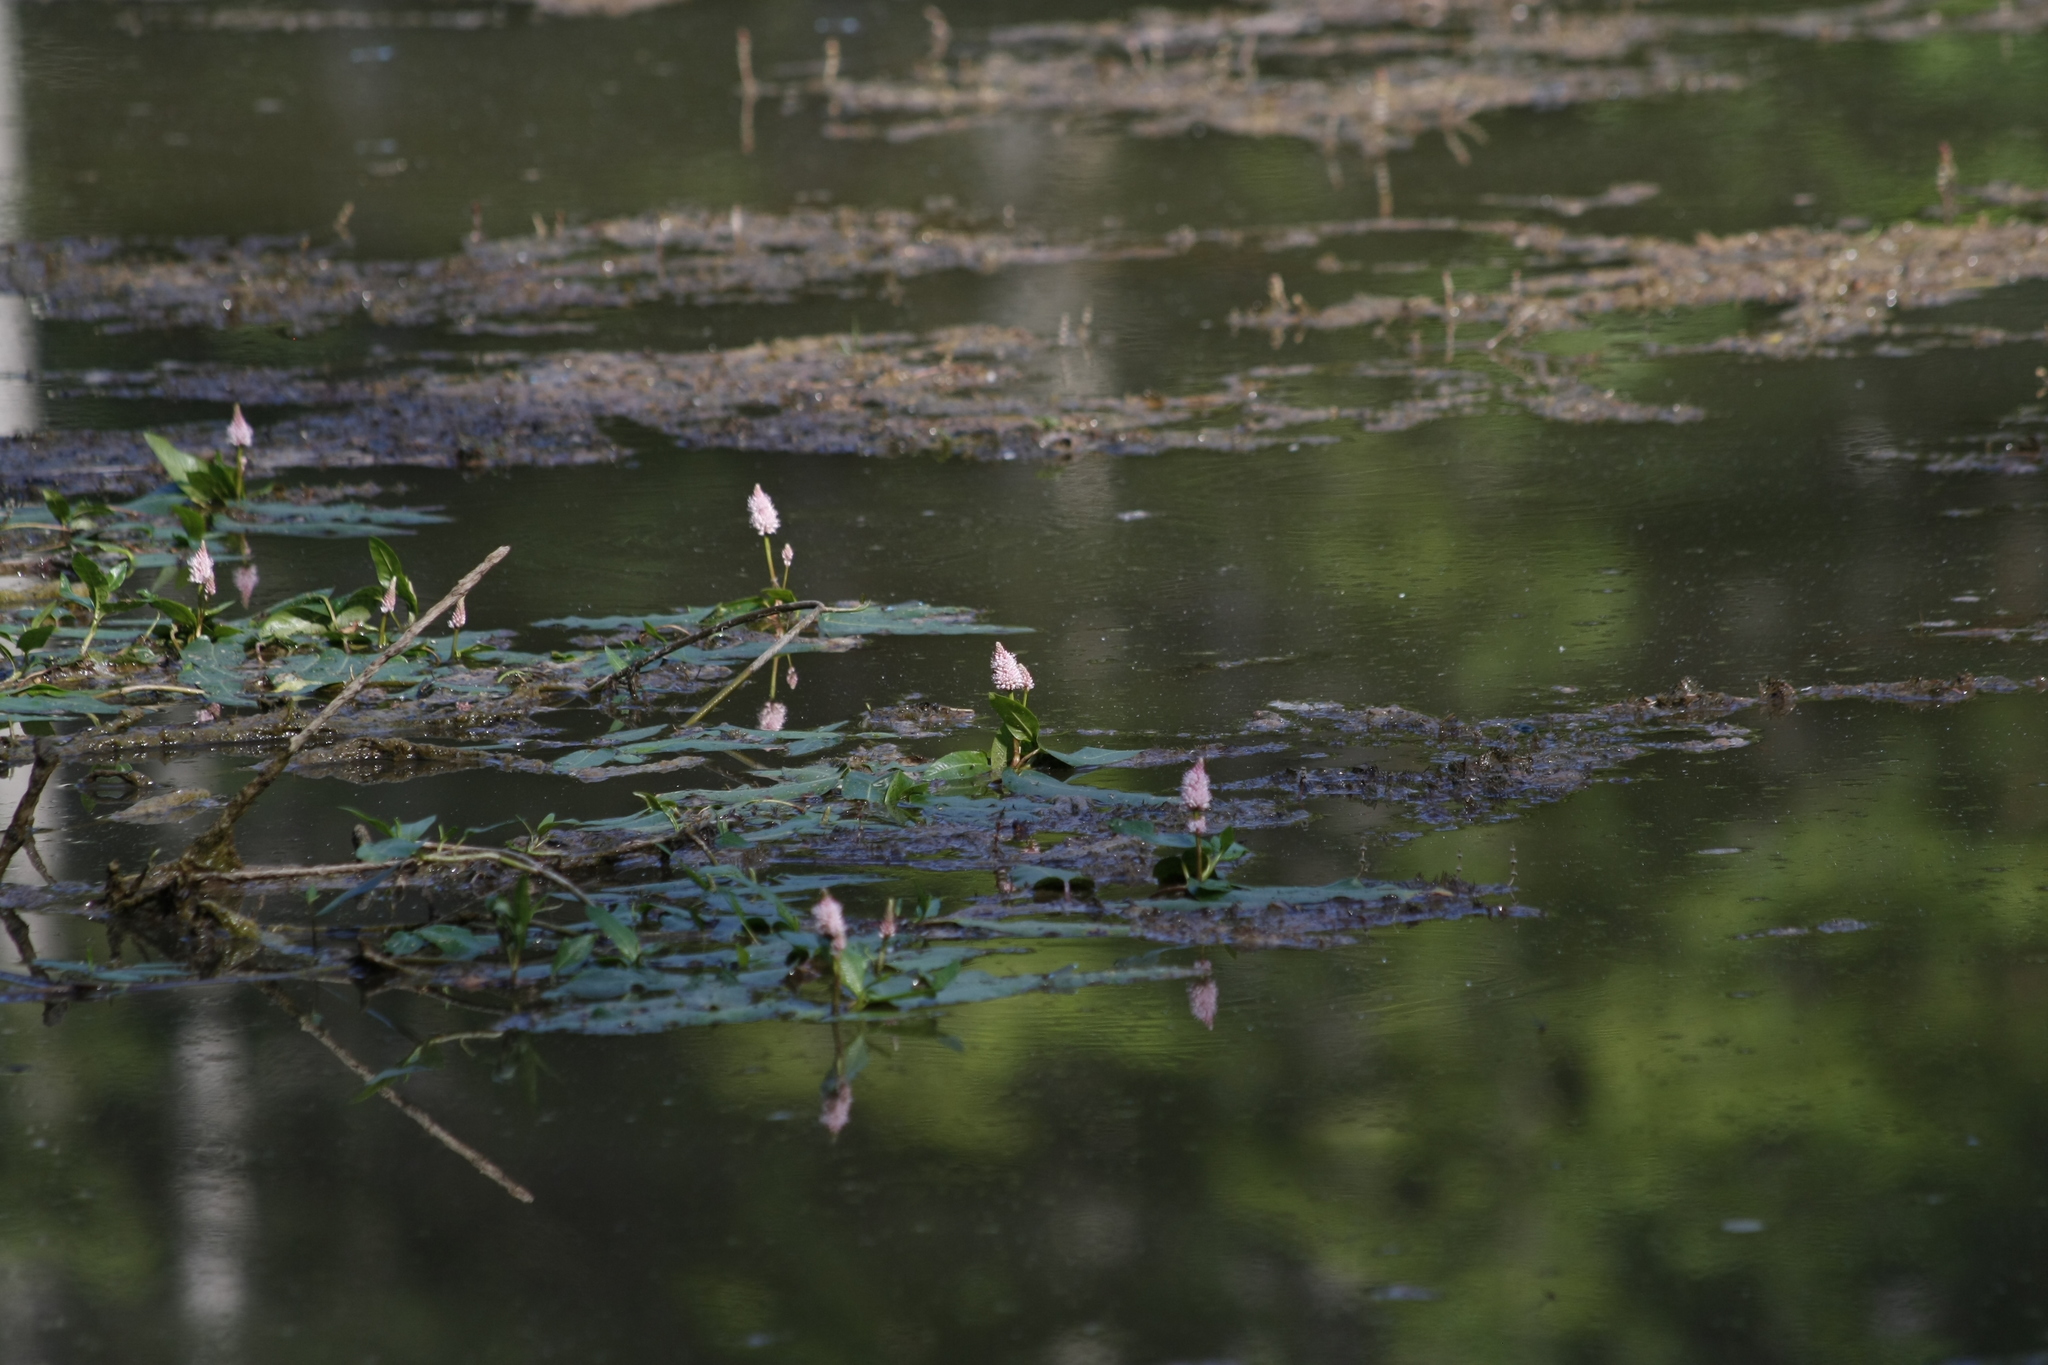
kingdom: Plantae
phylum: Tracheophyta
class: Magnoliopsida
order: Caryophyllales
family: Polygonaceae
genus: Persicaria
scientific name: Persicaria amphibia
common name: Amphibious bistort
